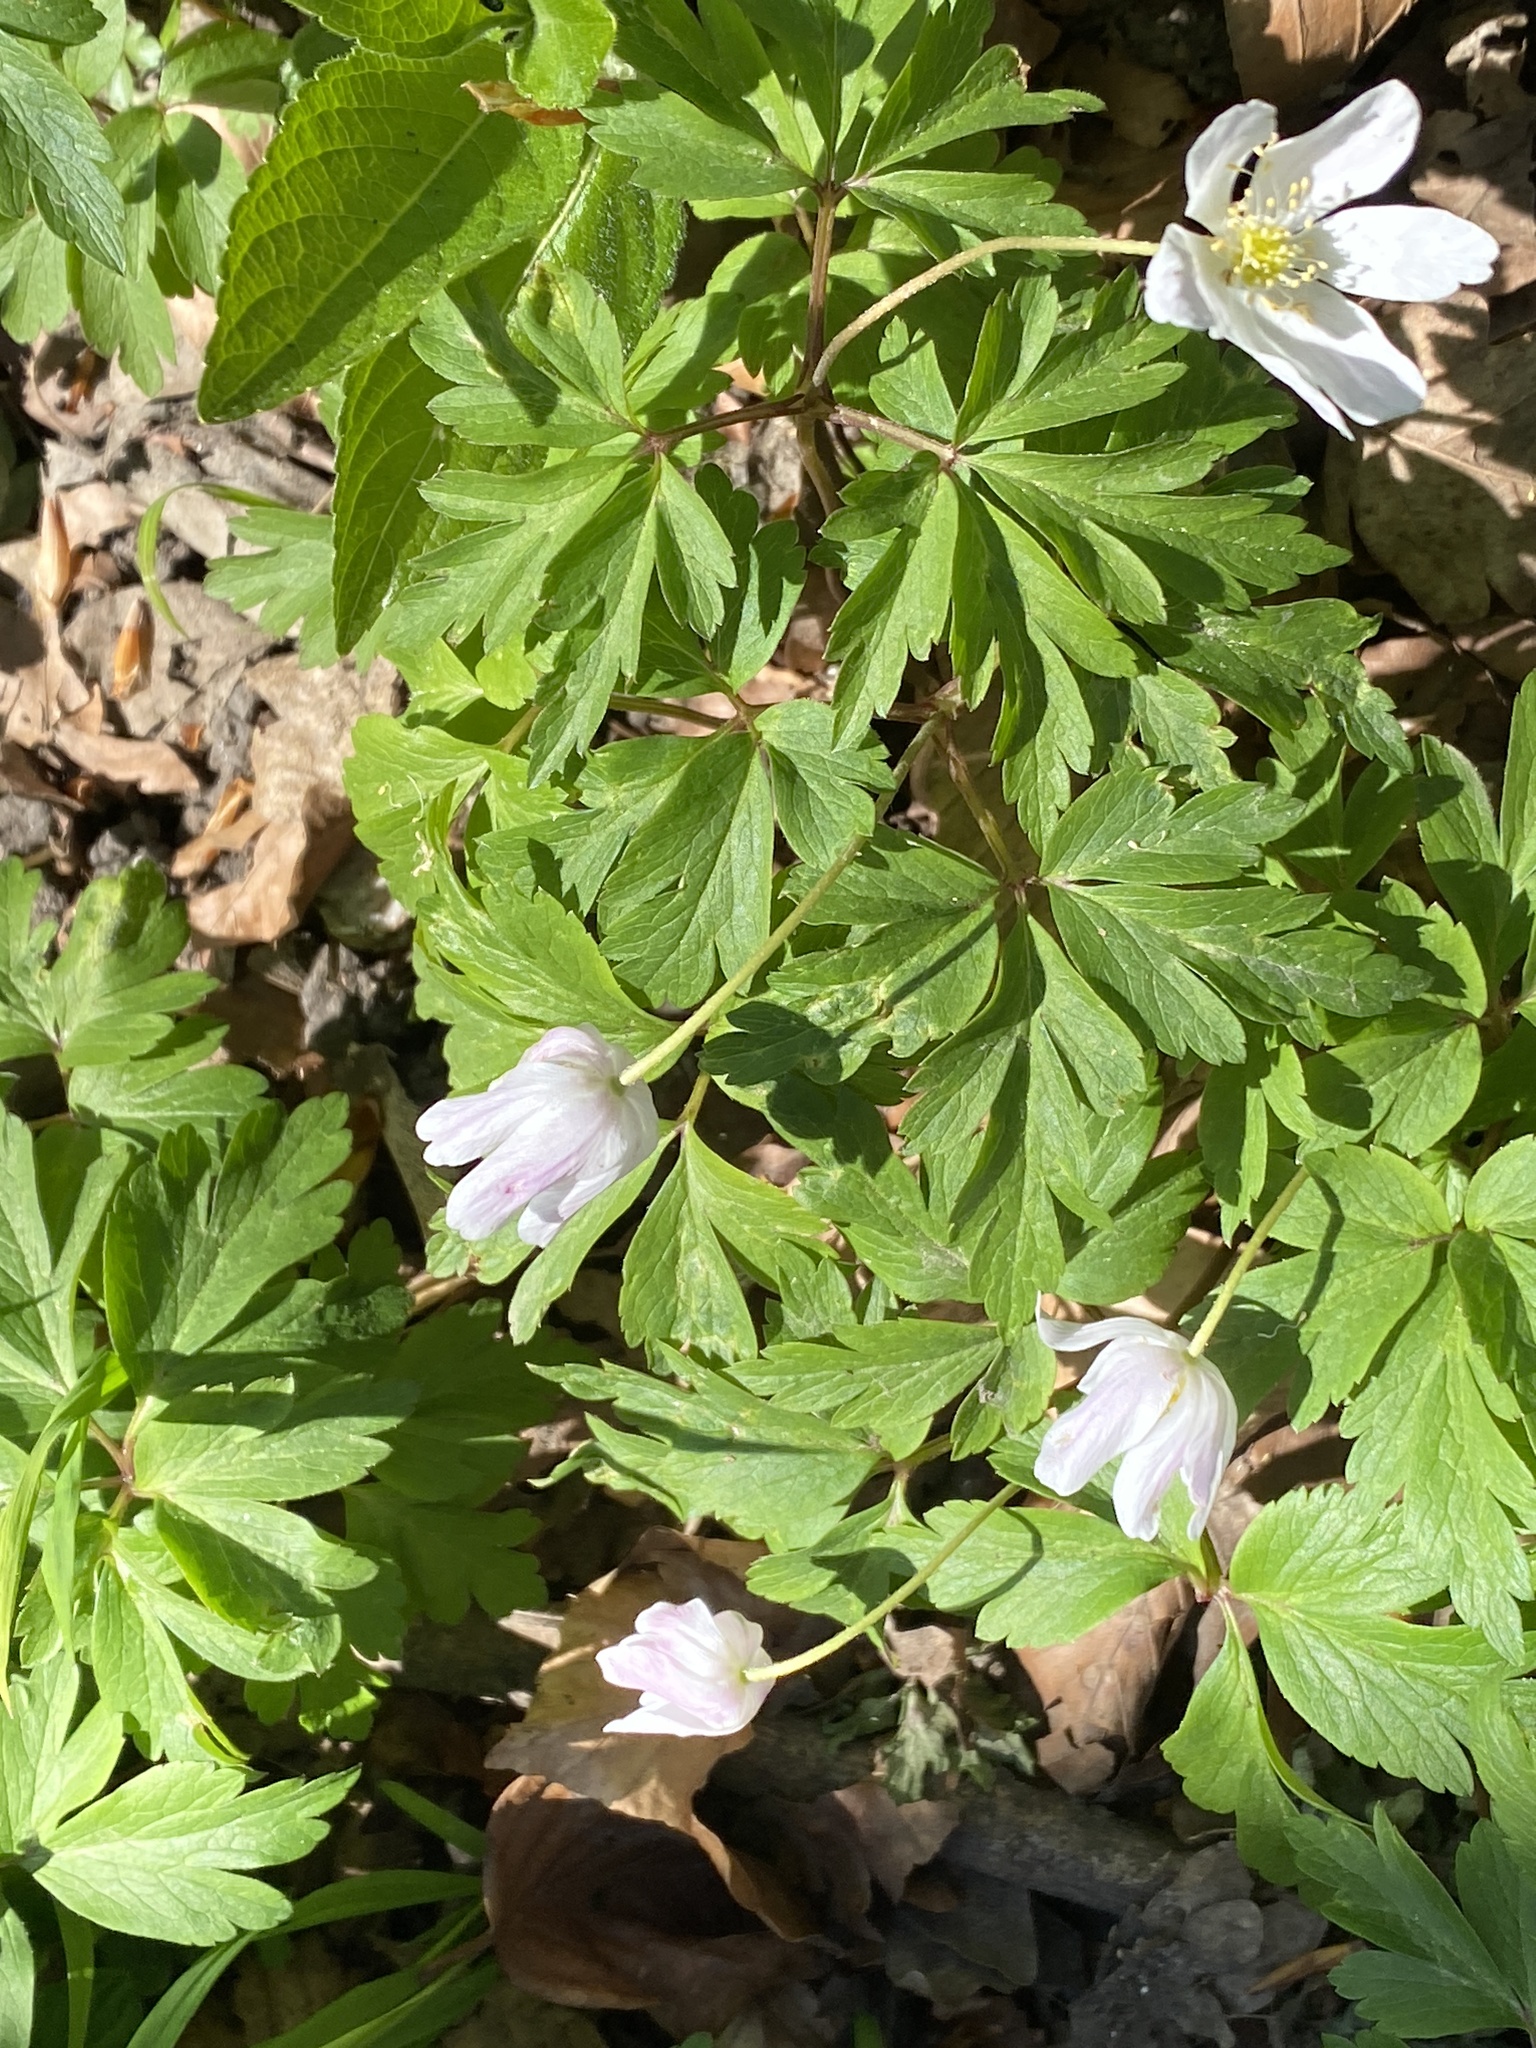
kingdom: Plantae
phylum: Tracheophyta
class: Magnoliopsida
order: Ranunculales
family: Ranunculaceae
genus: Anemone
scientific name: Anemone nemorosa
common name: Wood anemone
